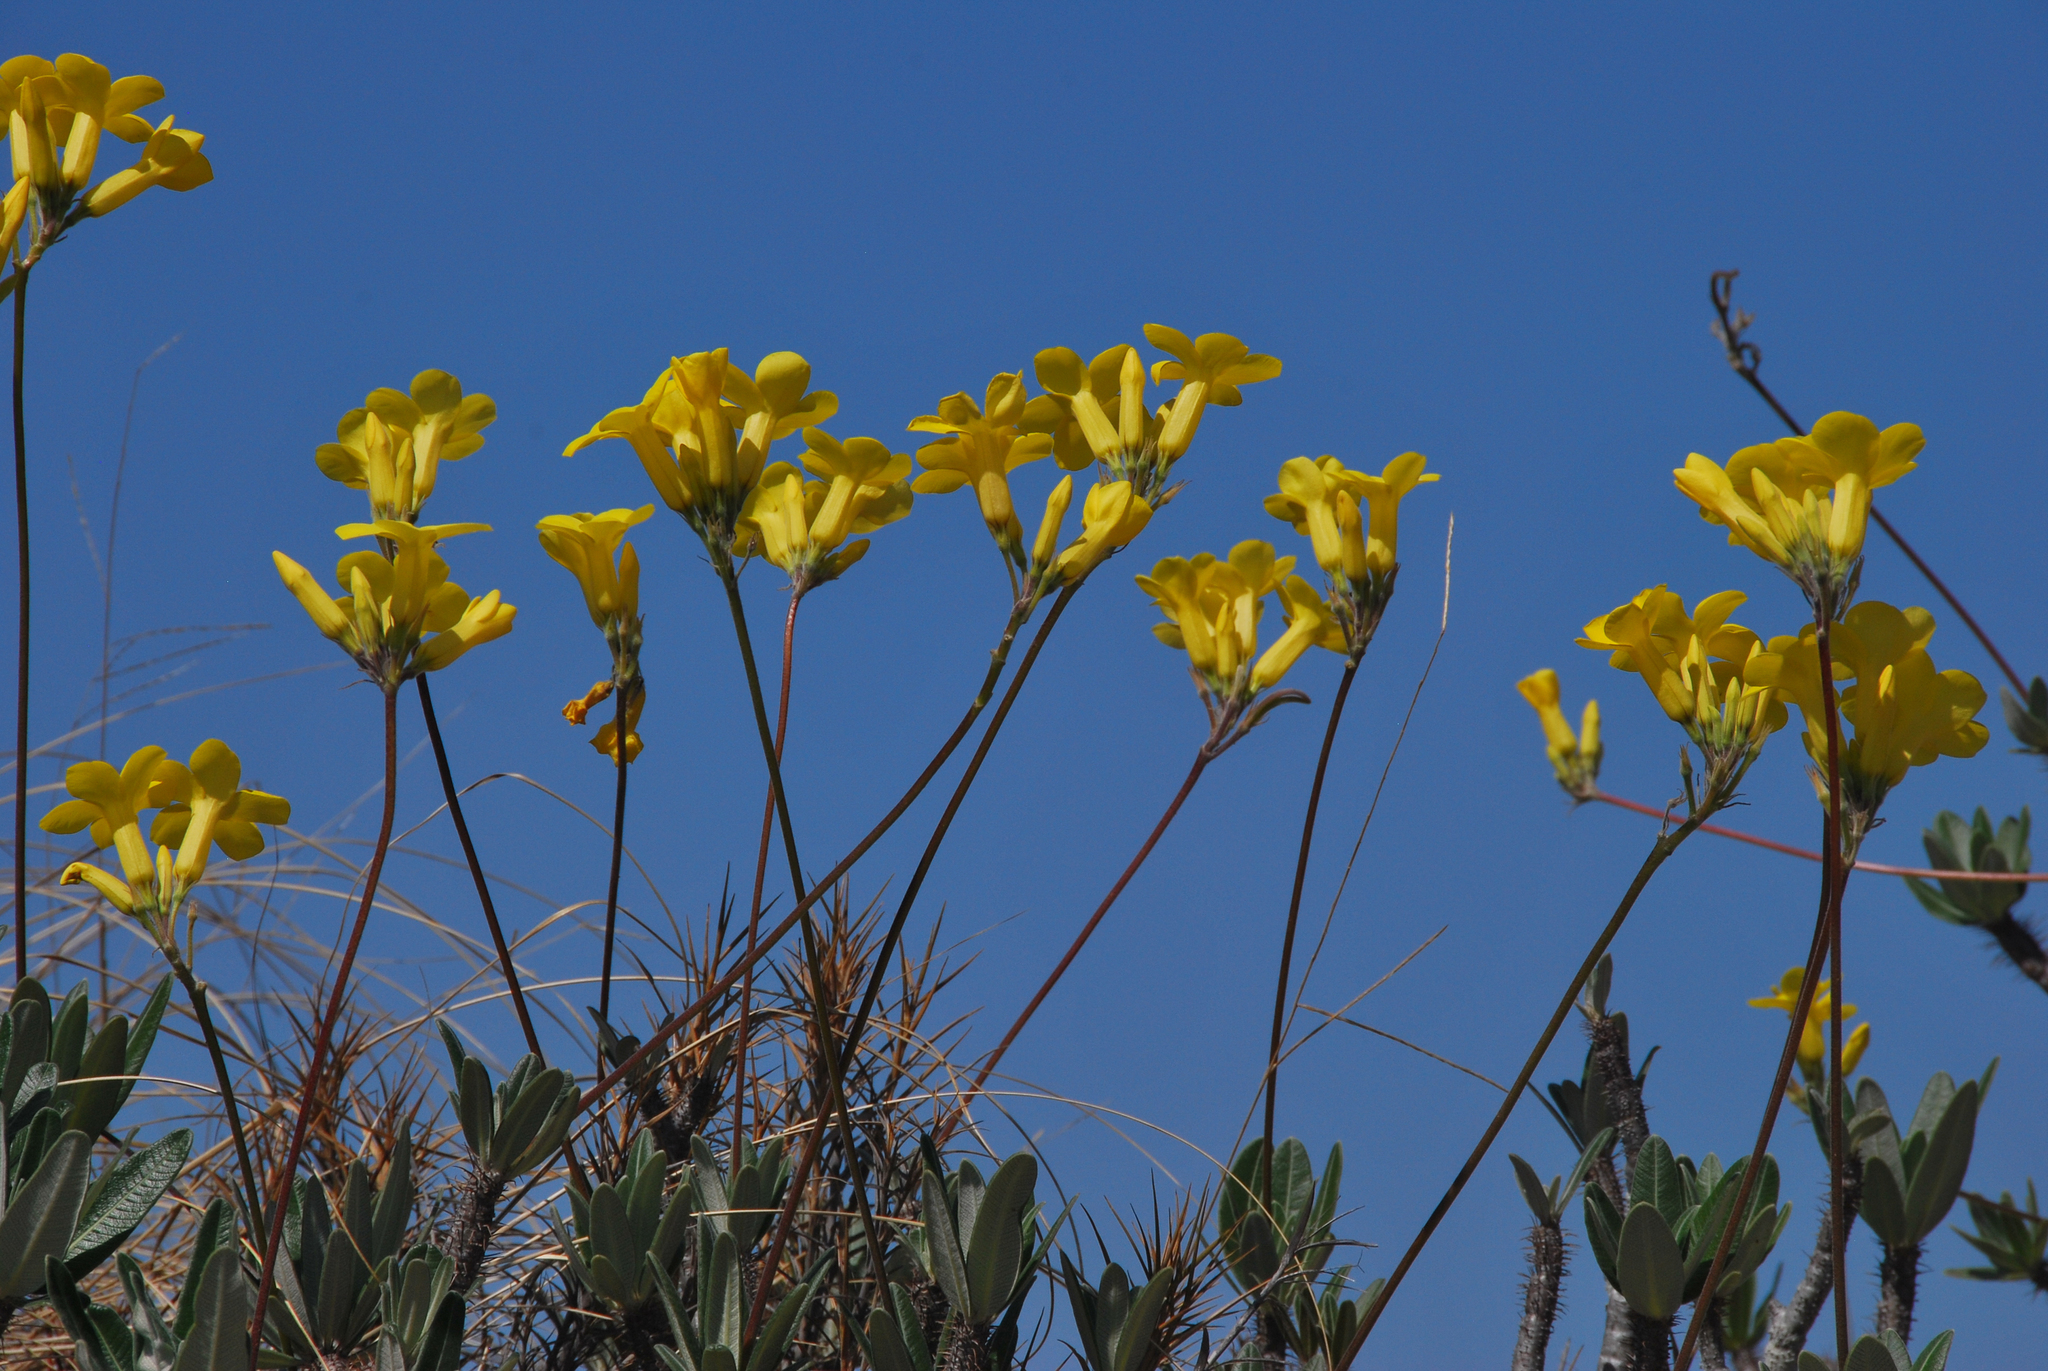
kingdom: Plantae
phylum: Tracheophyta
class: Magnoliopsida
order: Gentianales
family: Apocynaceae
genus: Pachypodium
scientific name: Pachypodium rosulatum
